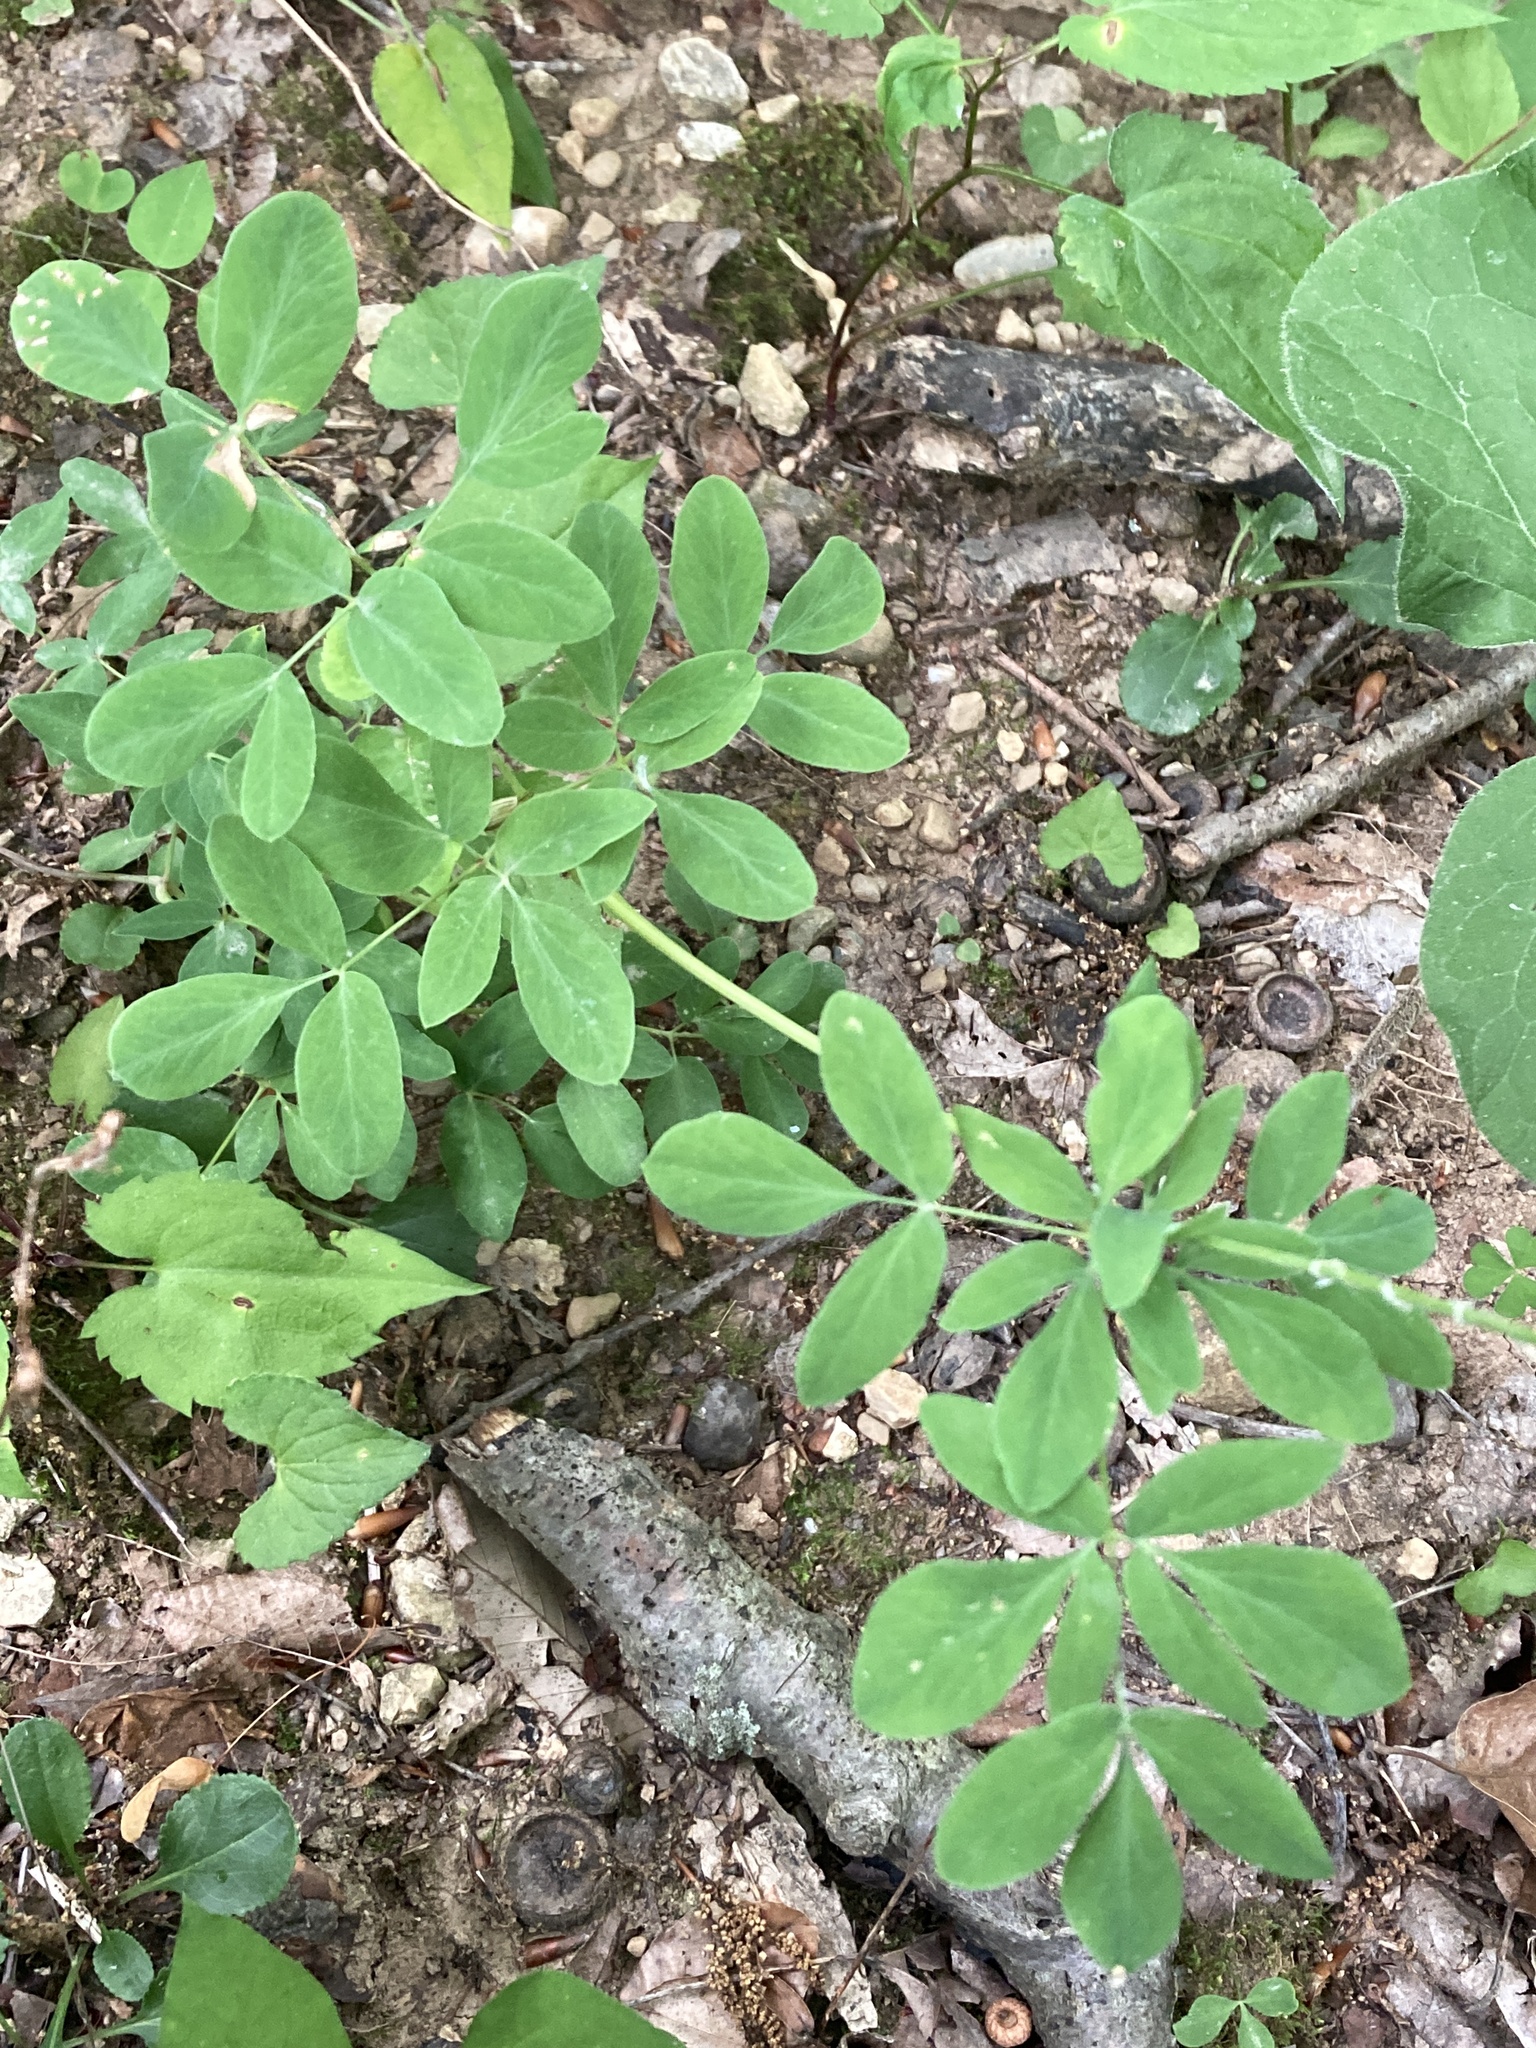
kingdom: Plantae
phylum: Tracheophyta
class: Magnoliopsida
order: Apiales
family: Apiaceae
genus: Taenidia
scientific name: Taenidia integerrima
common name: Golden alexander
